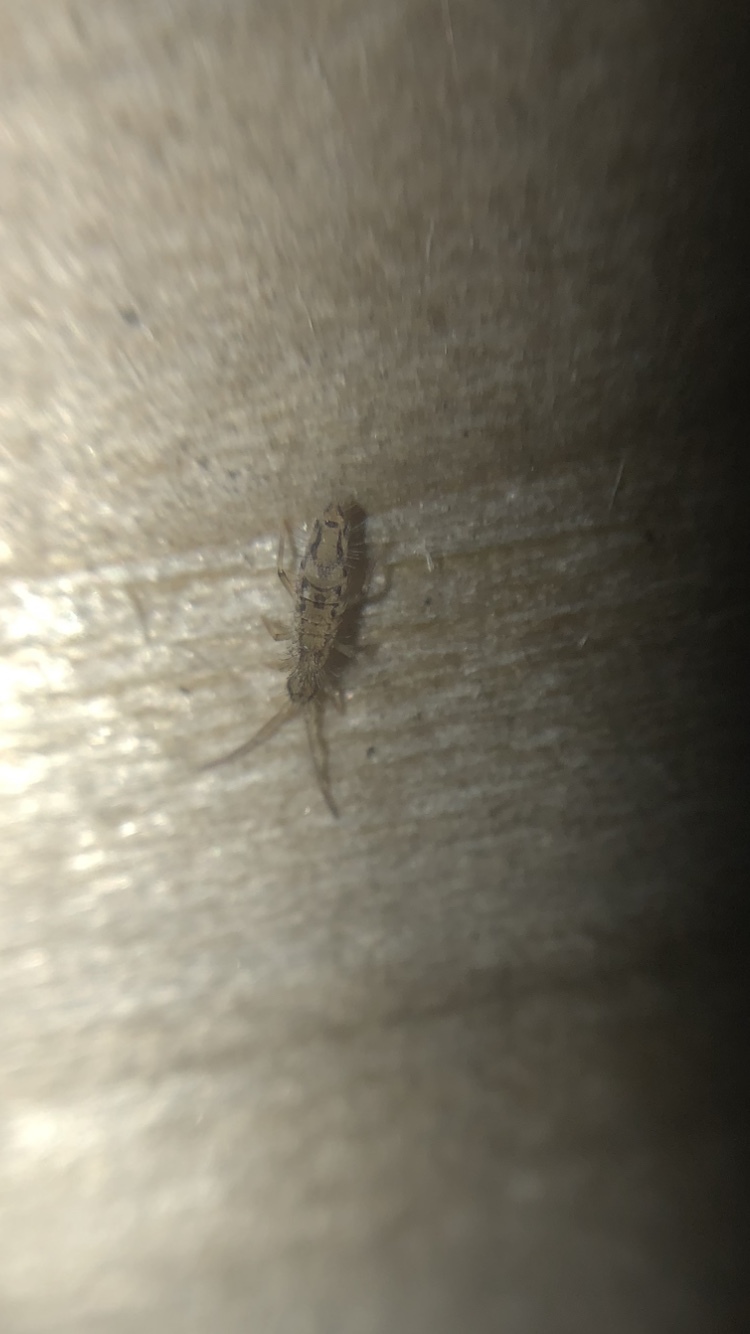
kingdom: Animalia
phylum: Arthropoda
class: Collembola
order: Entomobryomorpha
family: Entomobryidae
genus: Entomobrya
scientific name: Entomobrya intermedia
